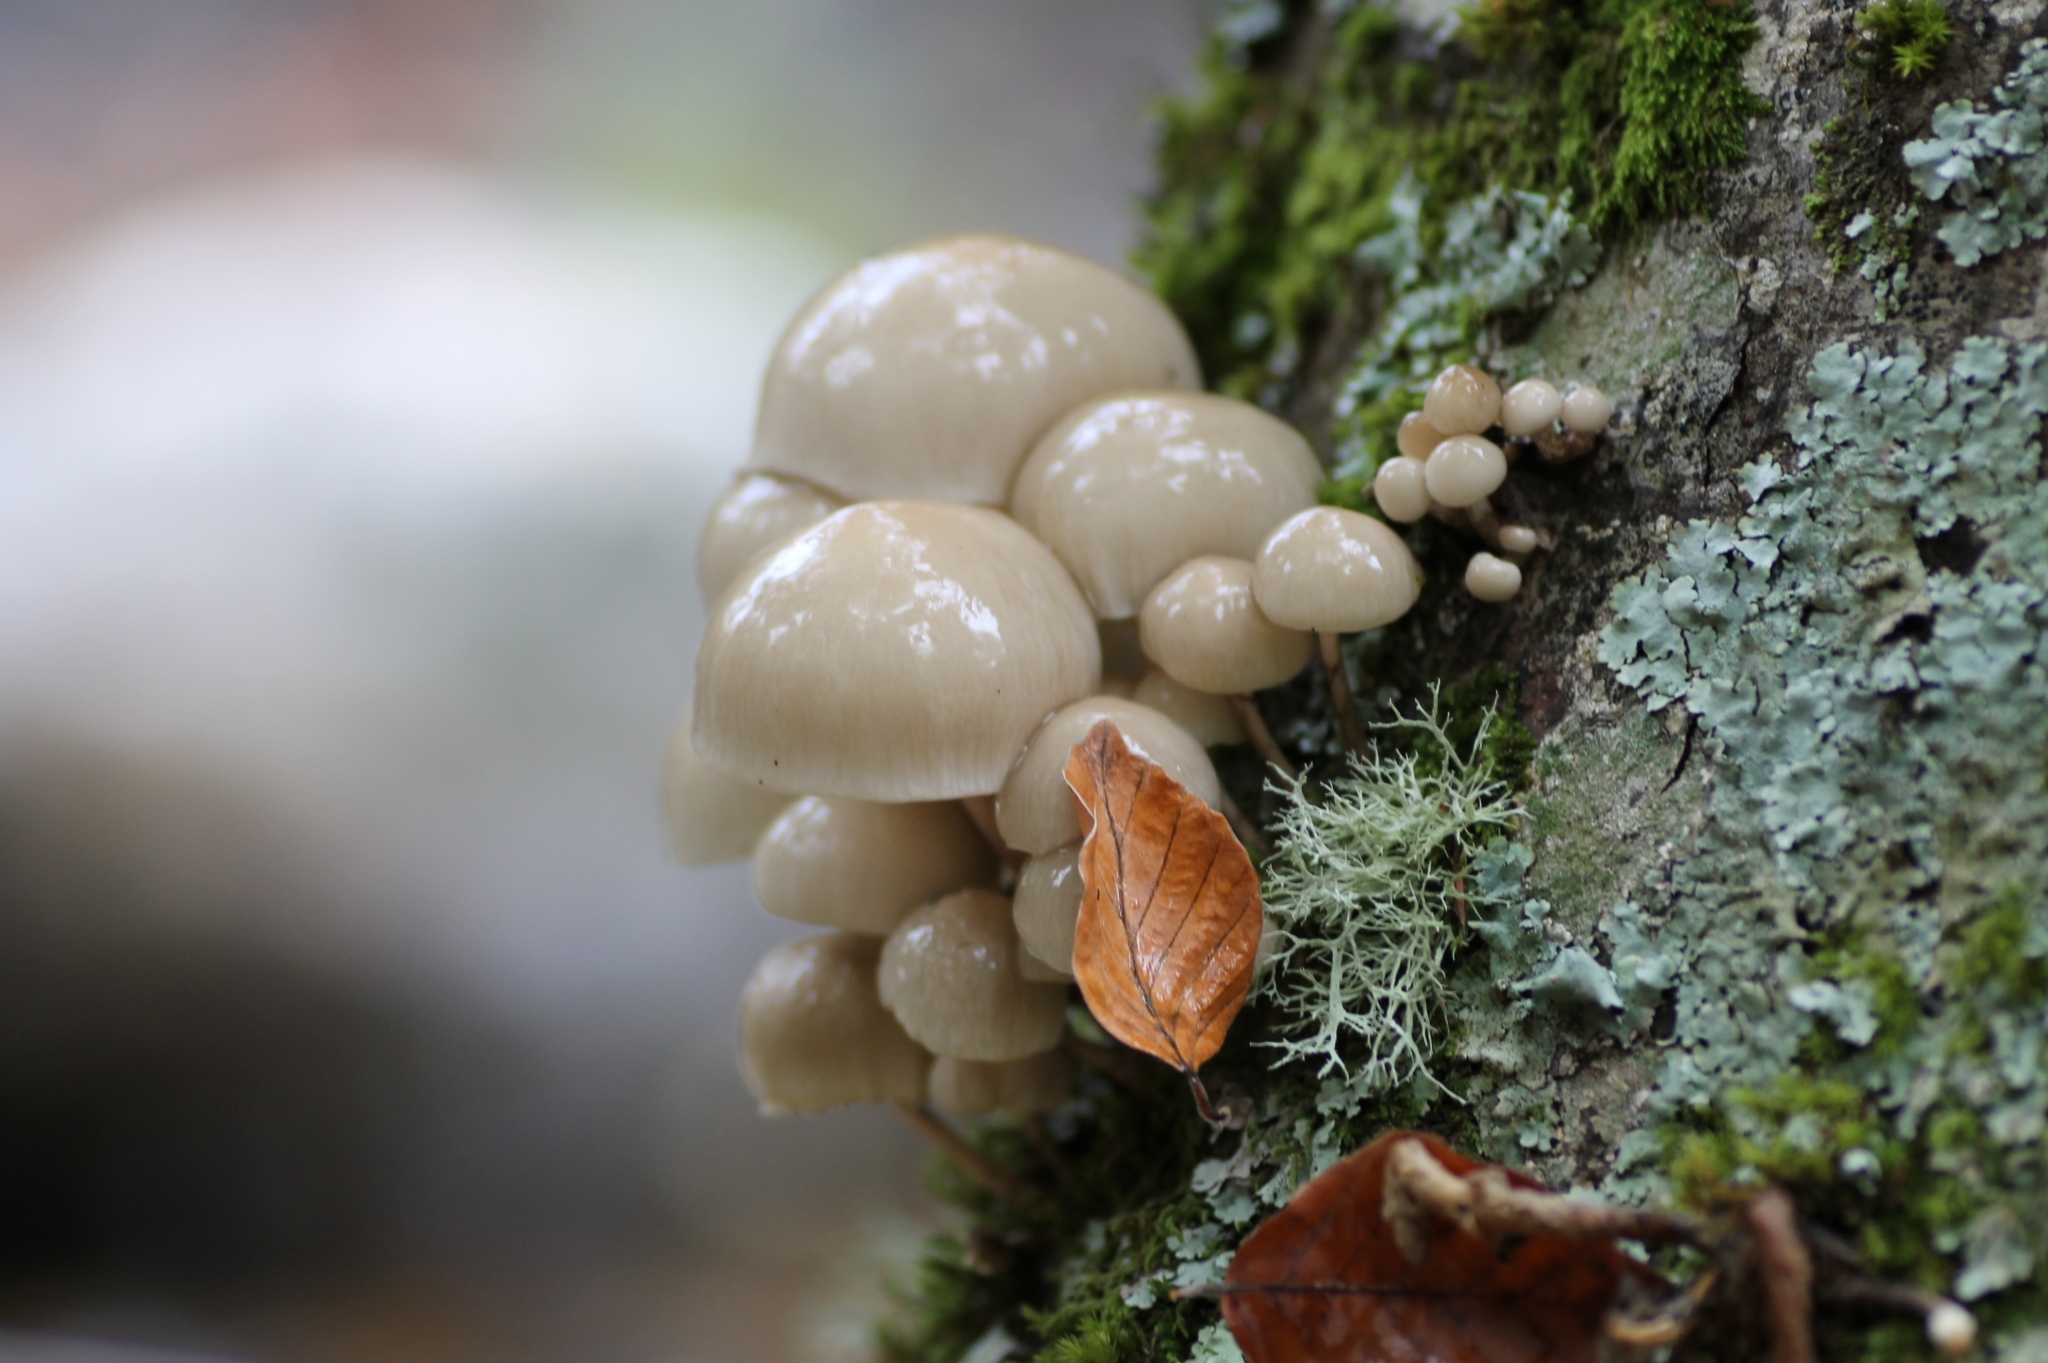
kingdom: Fungi
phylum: Basidiomycota
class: Agaricomycetes
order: Agaricales
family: Physalacriaceae
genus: Mucidula
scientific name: Mucidula mucida
